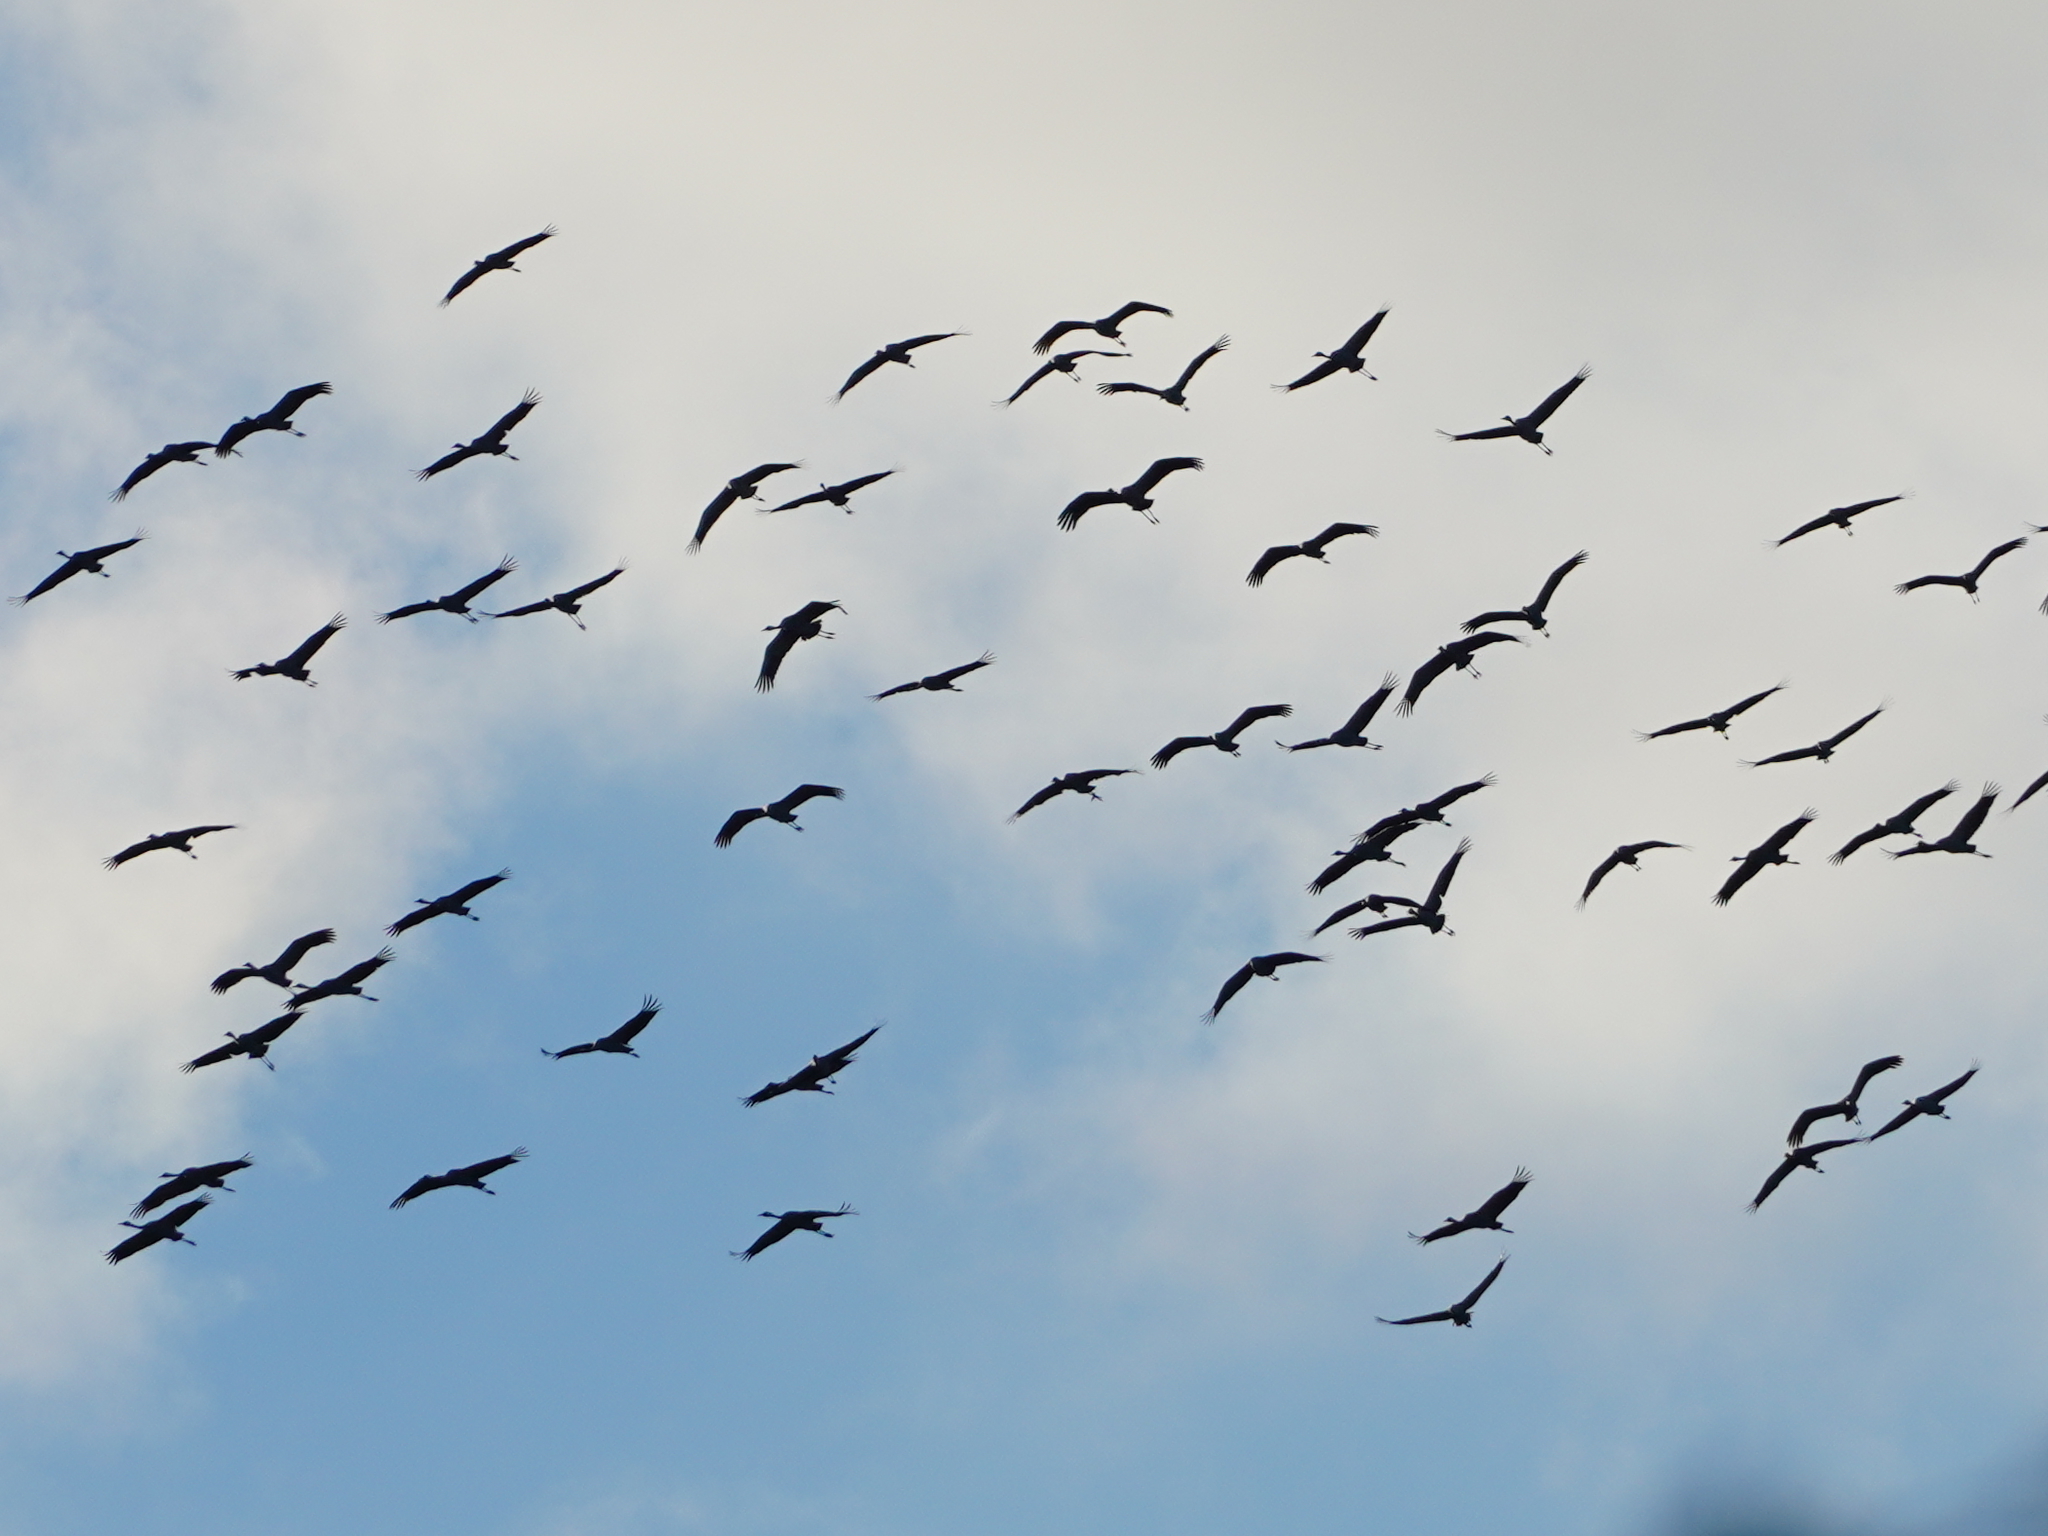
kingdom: Animalia
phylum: Chordata
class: Aves
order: Gruiformes
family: Gruidae
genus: Grus
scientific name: Grus grus
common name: Common crane
